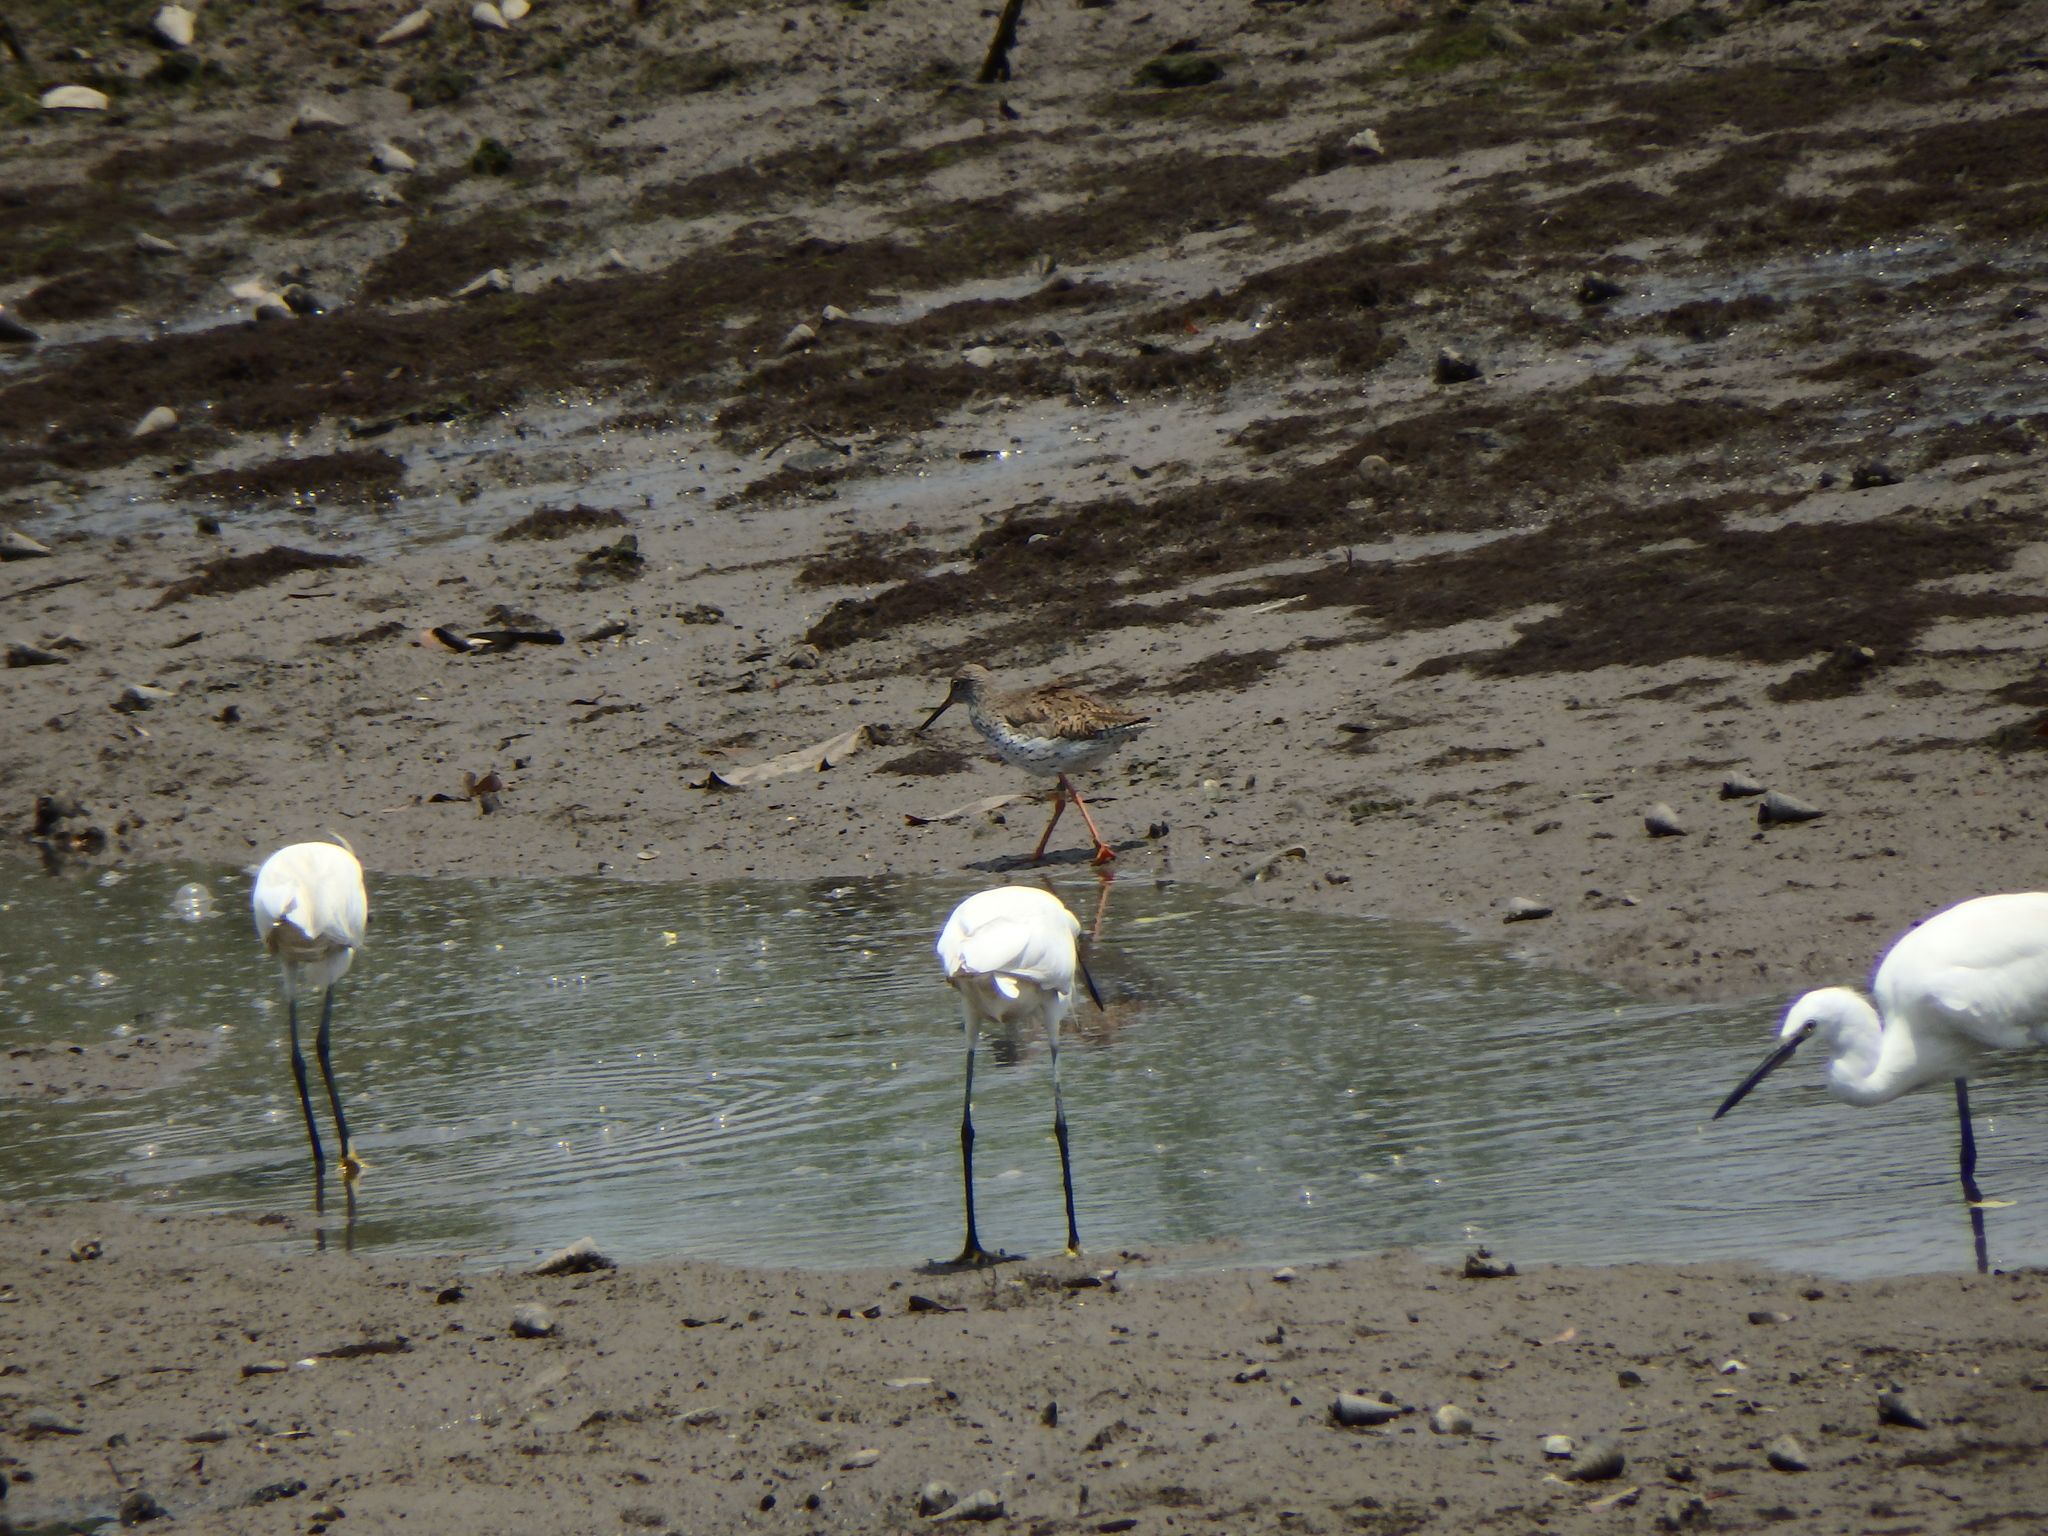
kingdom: Animalia
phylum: Chordata
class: Aves
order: Charadriiformes
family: Scolopacidae
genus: Tringa
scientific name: Tringa totanus
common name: Common redshank
